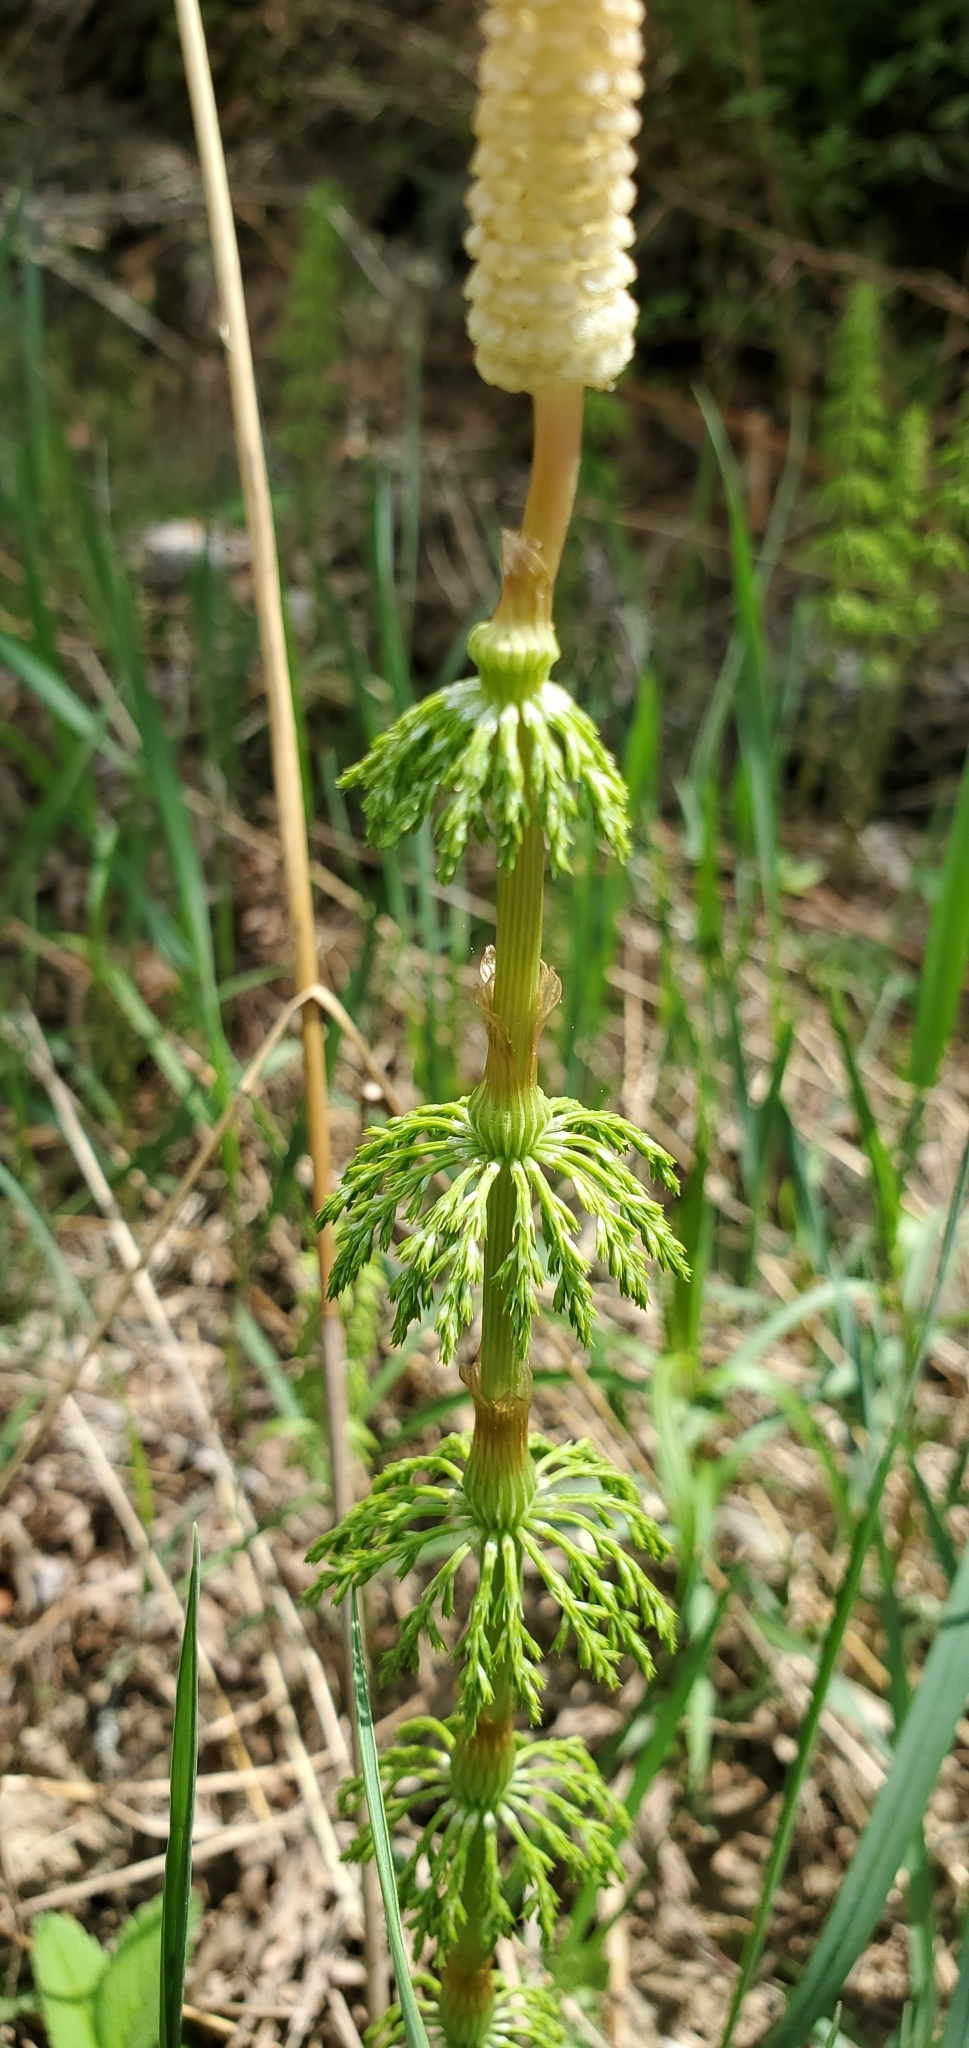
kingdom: Plantae
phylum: Tracheophyta
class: Polypodiopsida
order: Equisetales
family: Equisetaceae
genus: Equisetum
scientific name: Equisetum sylvaticum
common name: Wood horsetail
